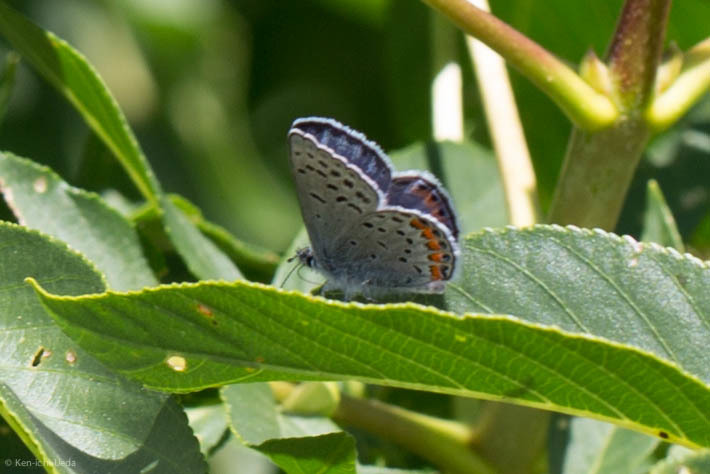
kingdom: Animalia
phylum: Arthropoda
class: Insecta
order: Lepidoptera
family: Lycaenidae
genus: Icaricia
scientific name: Icaricia acmon
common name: Acmon blue
